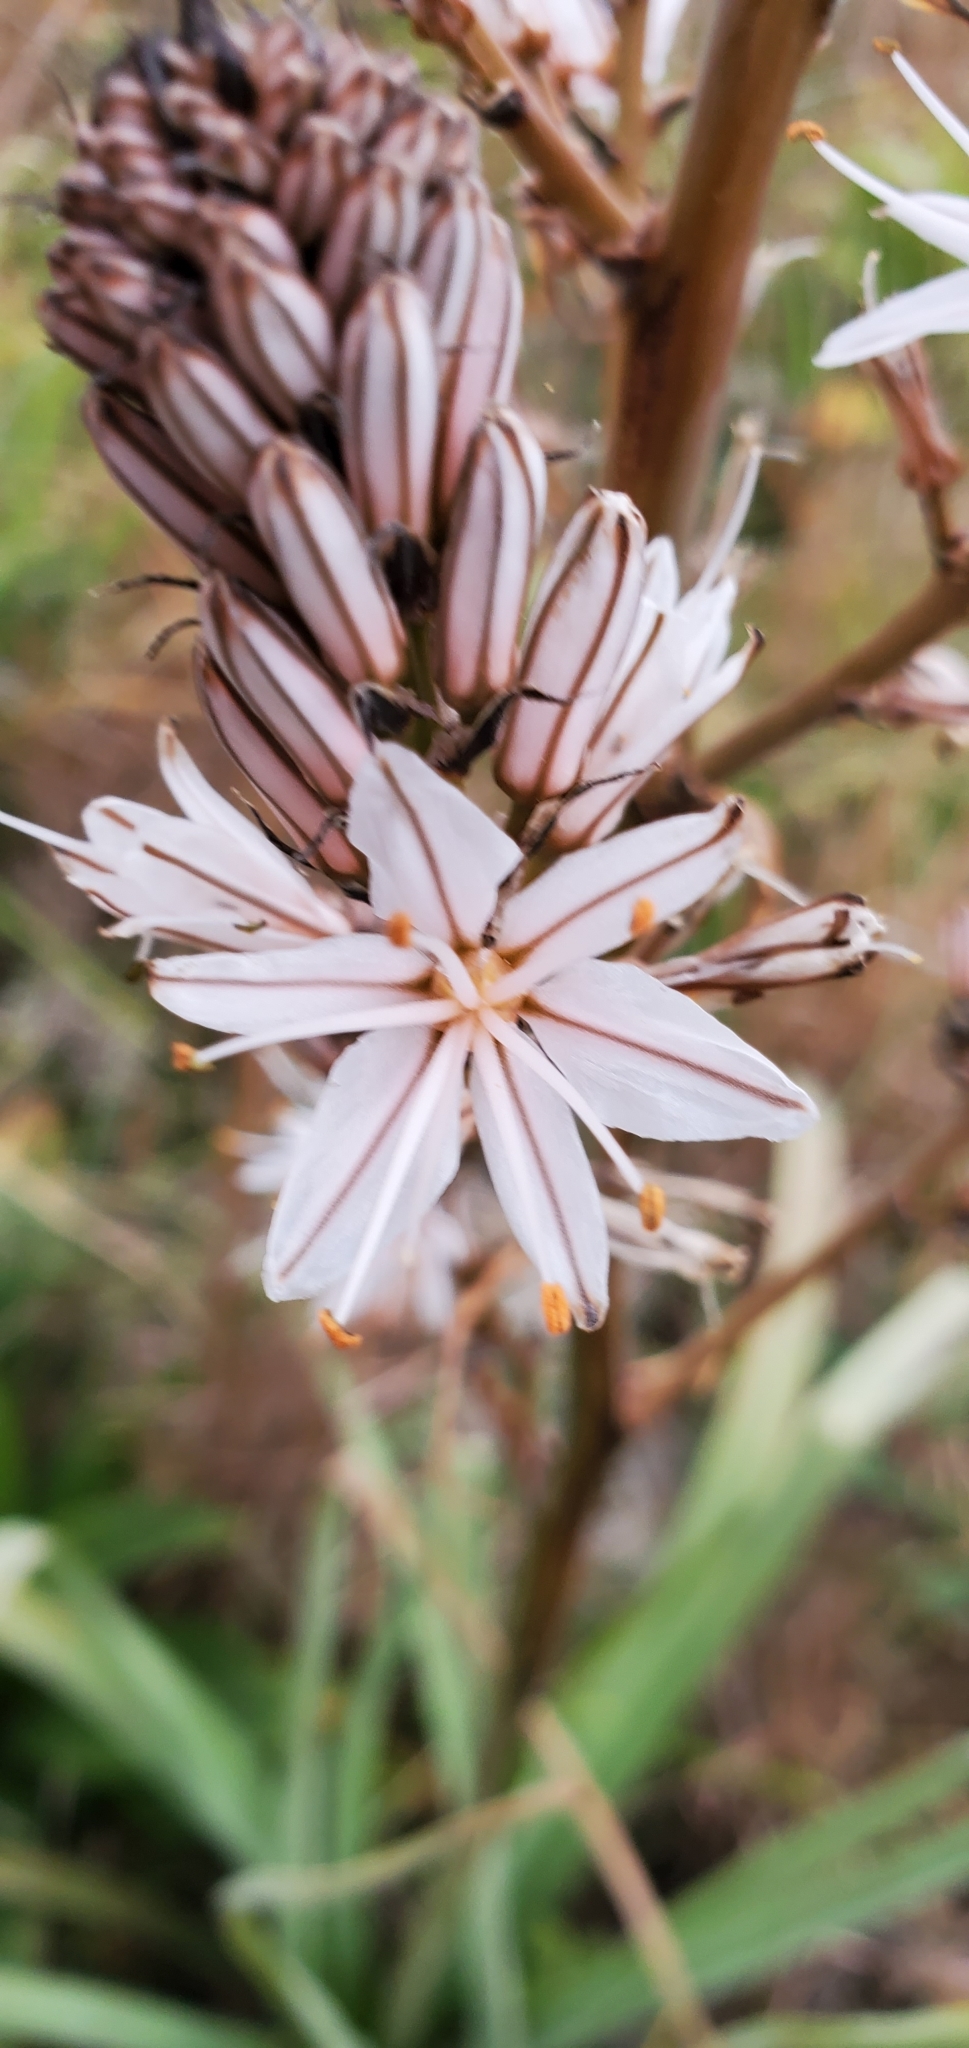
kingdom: Plantae
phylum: Tracheophyta
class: Liliopsida
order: Asparagales
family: Asphodelaceae
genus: Asphodelus
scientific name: Asphodelus ramosus
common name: Silverrod
